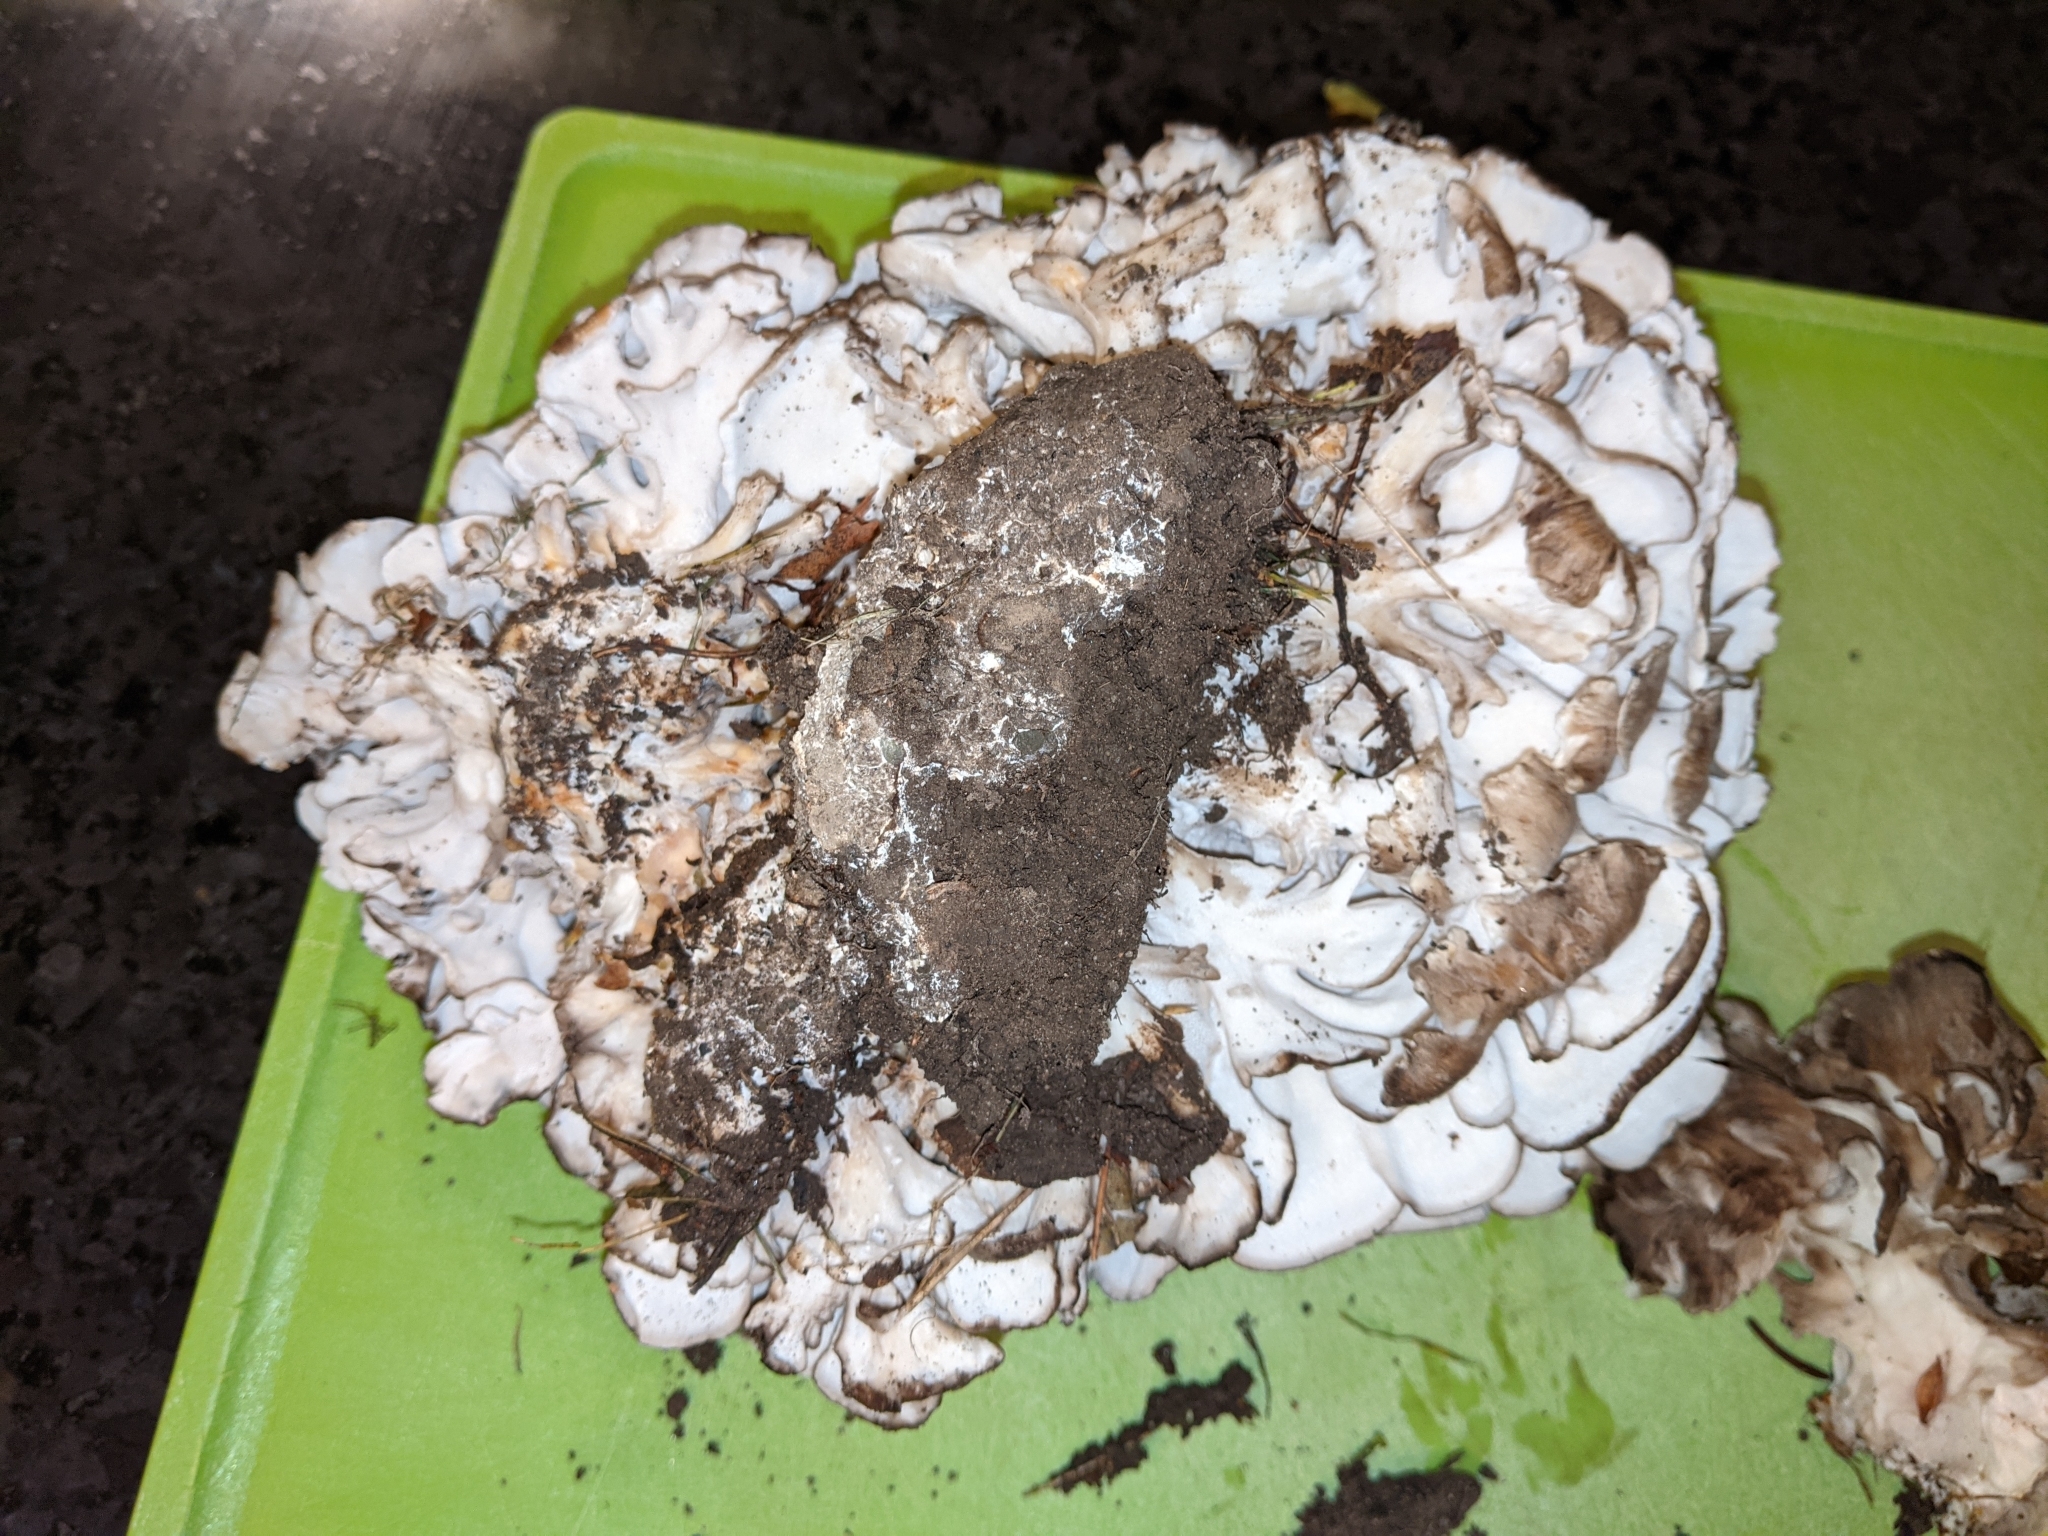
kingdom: Fungi
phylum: Basidiomycota
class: Agaricomycetes
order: Polyporales
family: Grifolaceae
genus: Grifola
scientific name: Grifola frondosa
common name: Hen of the woods
